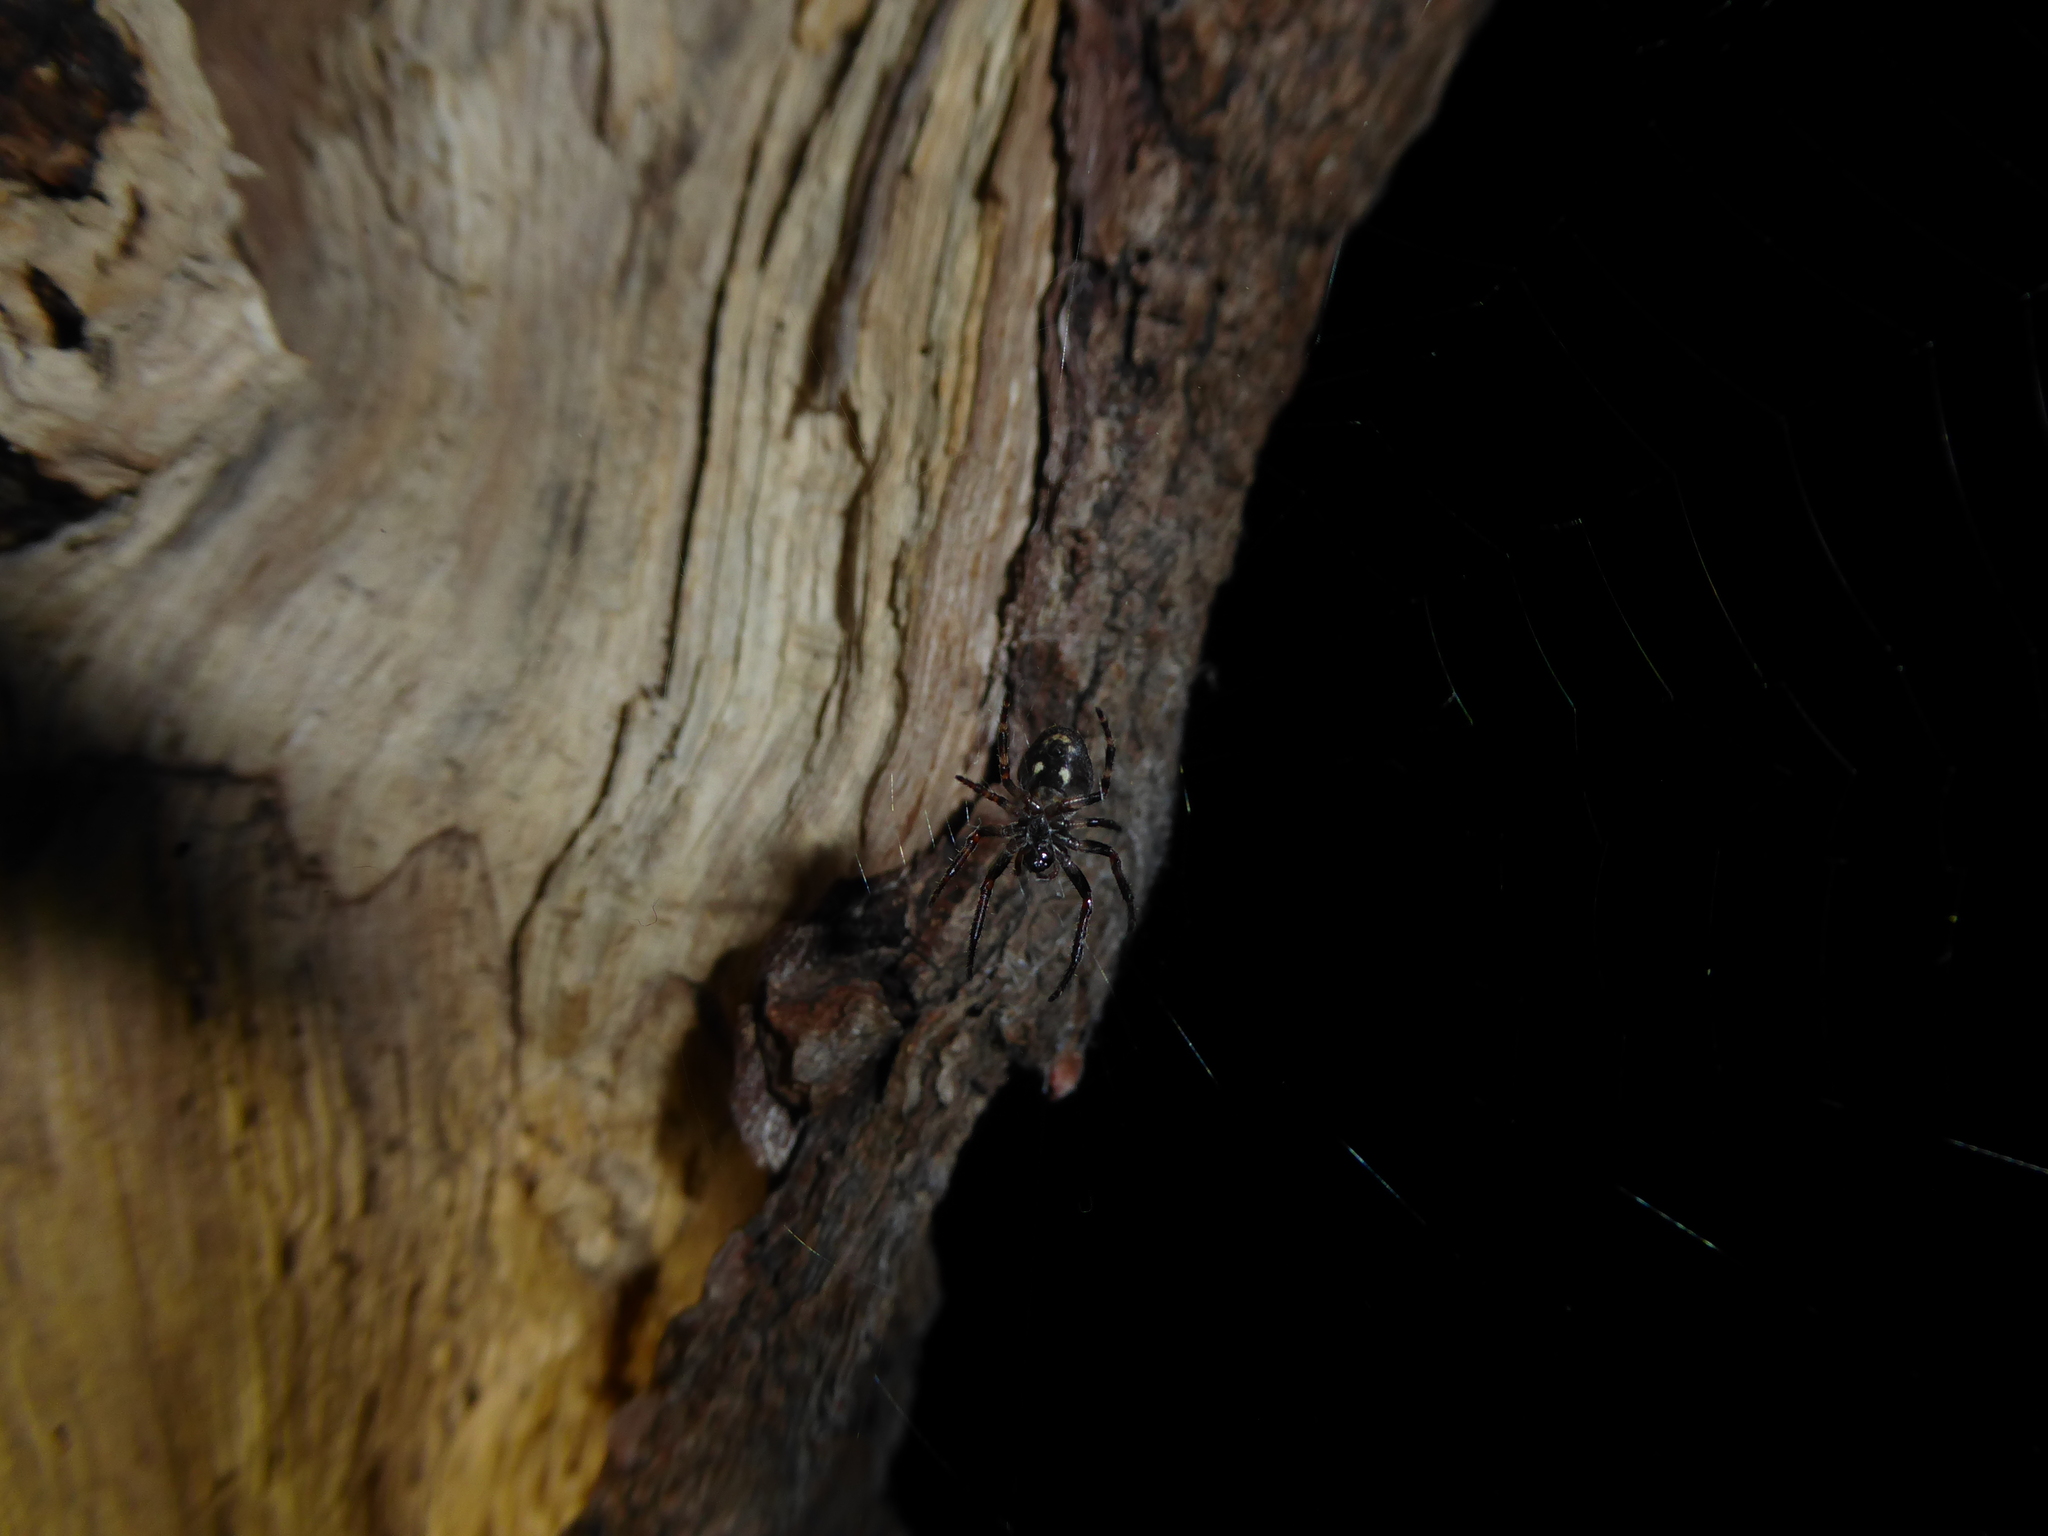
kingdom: Animalia
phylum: Arthropoda
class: Arachnida
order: Araneae
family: Araneidae
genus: Nuctenea
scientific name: Nuctenea umbratica
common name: Toad spider
